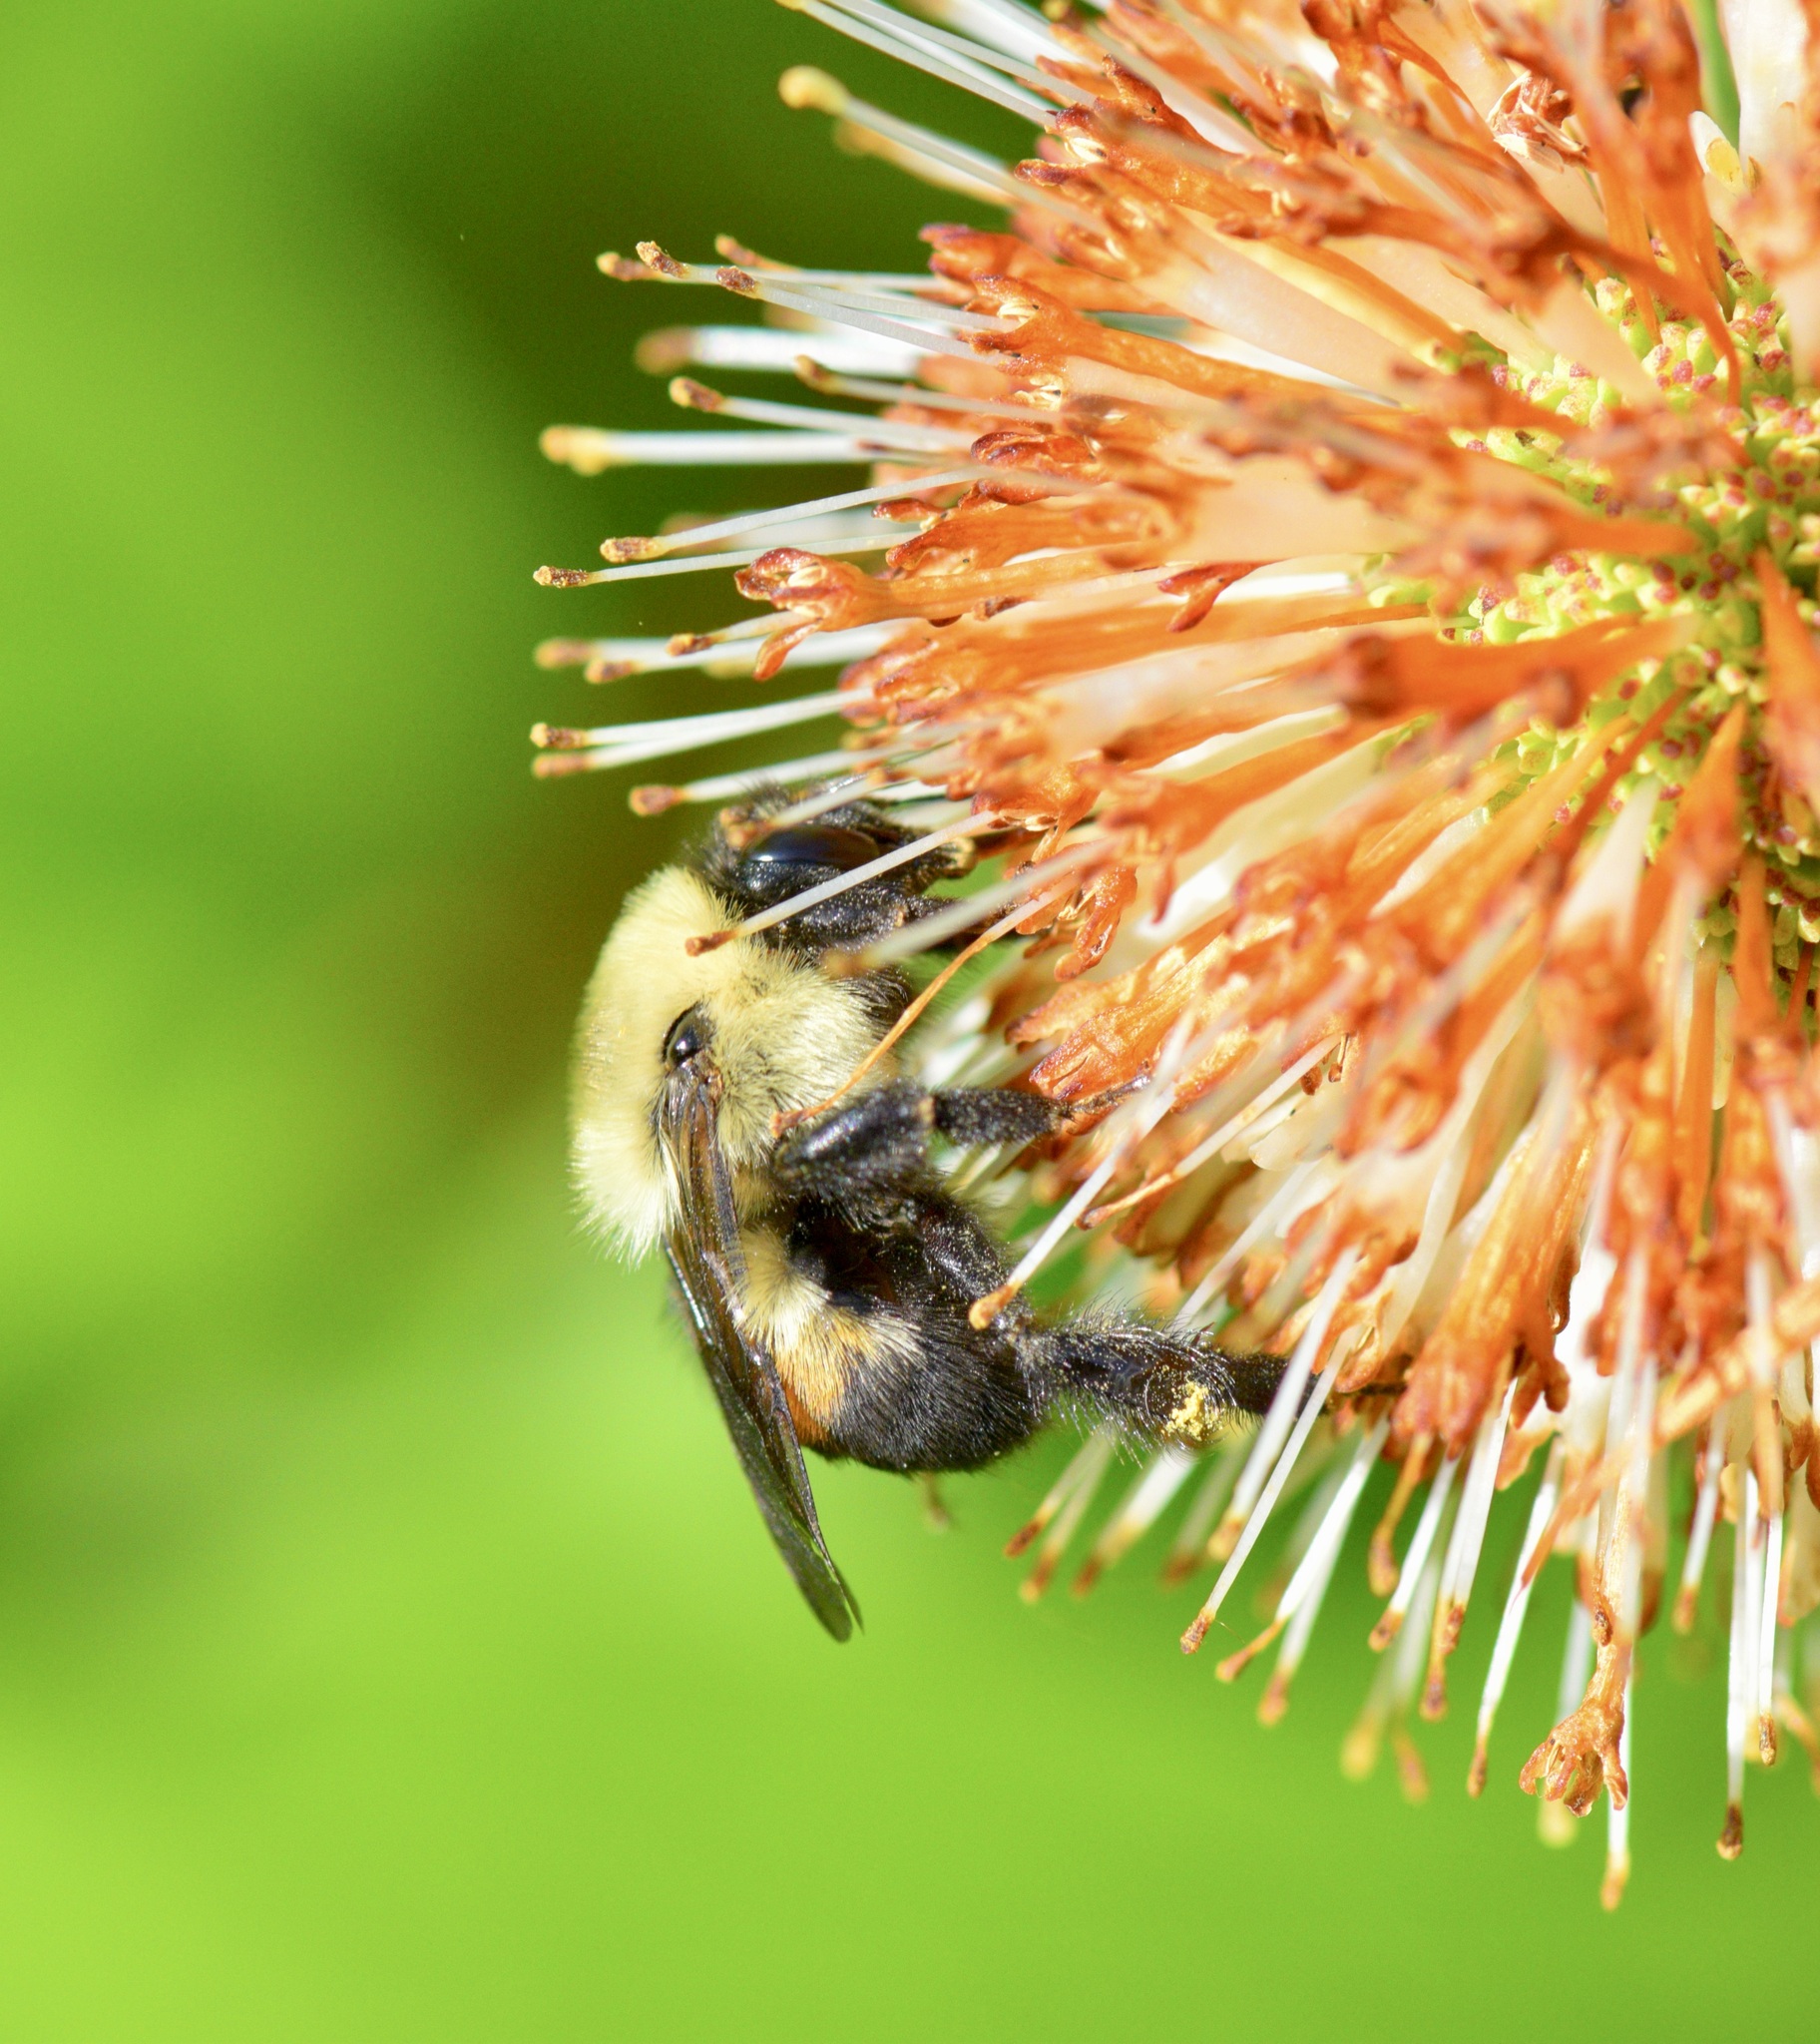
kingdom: Animalia
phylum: Arthropoda
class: Insecta
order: Hymenoptera
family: Apidae
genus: Bombus
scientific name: Bombus griseocollis
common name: Brown-belted bumble bee
